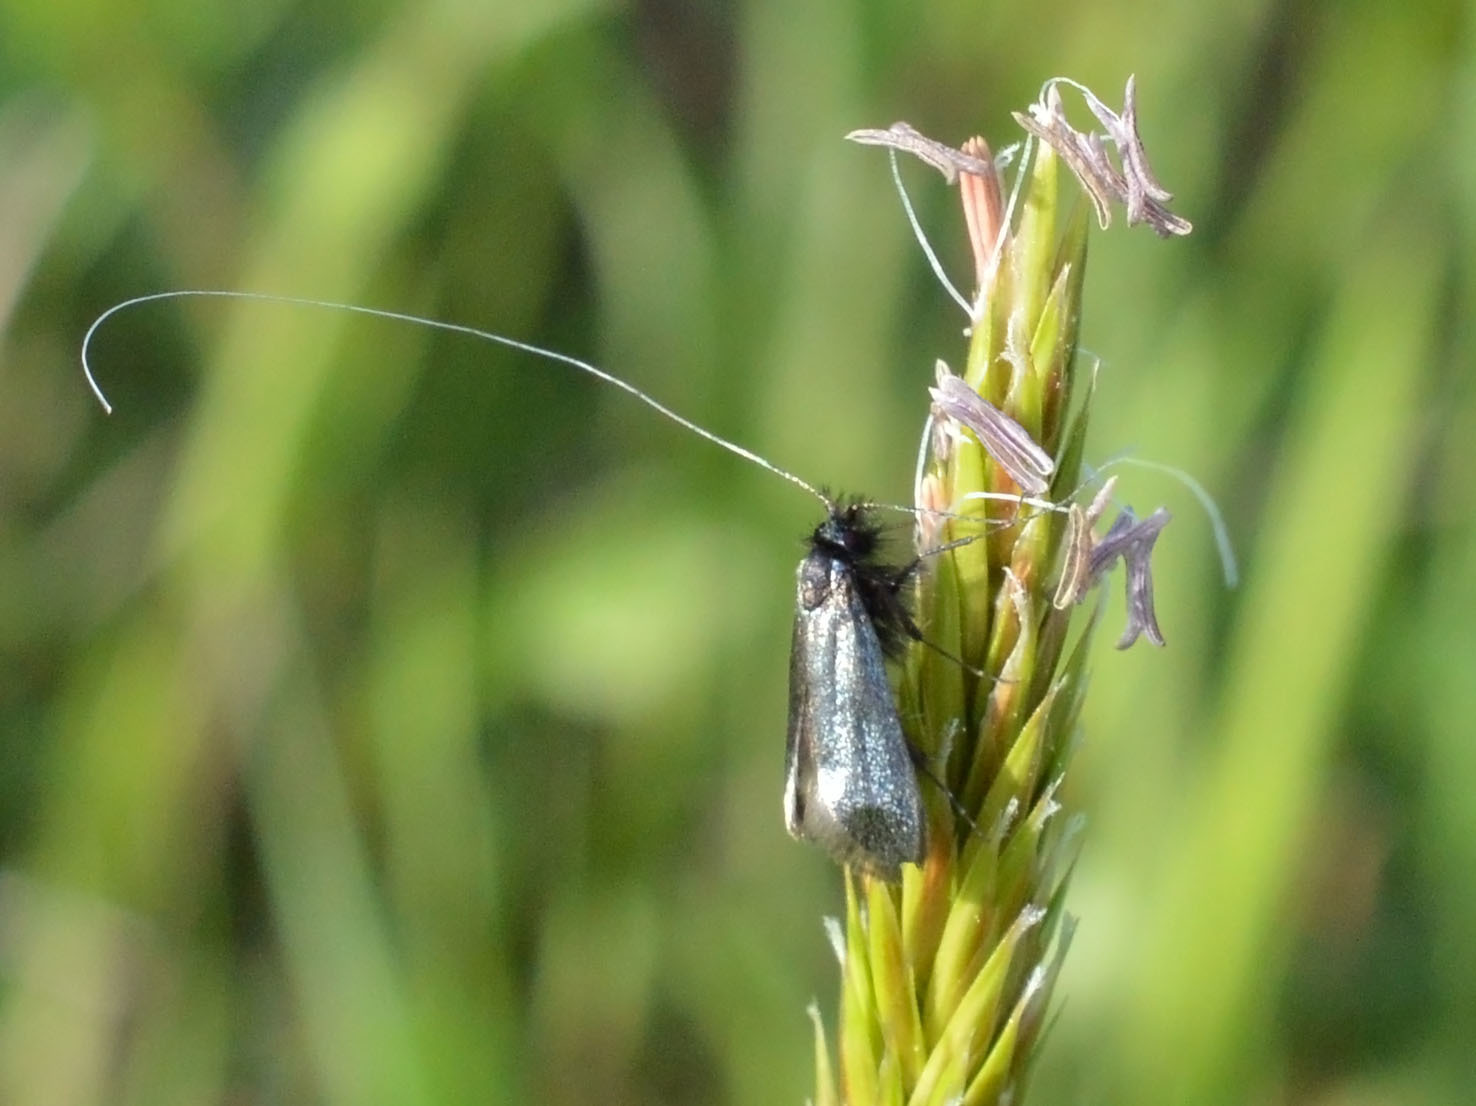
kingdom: Animalia
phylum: Arthropoda
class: Insecta
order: Lepidoptera
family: Adelidae
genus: Adela
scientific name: Adela viridella
